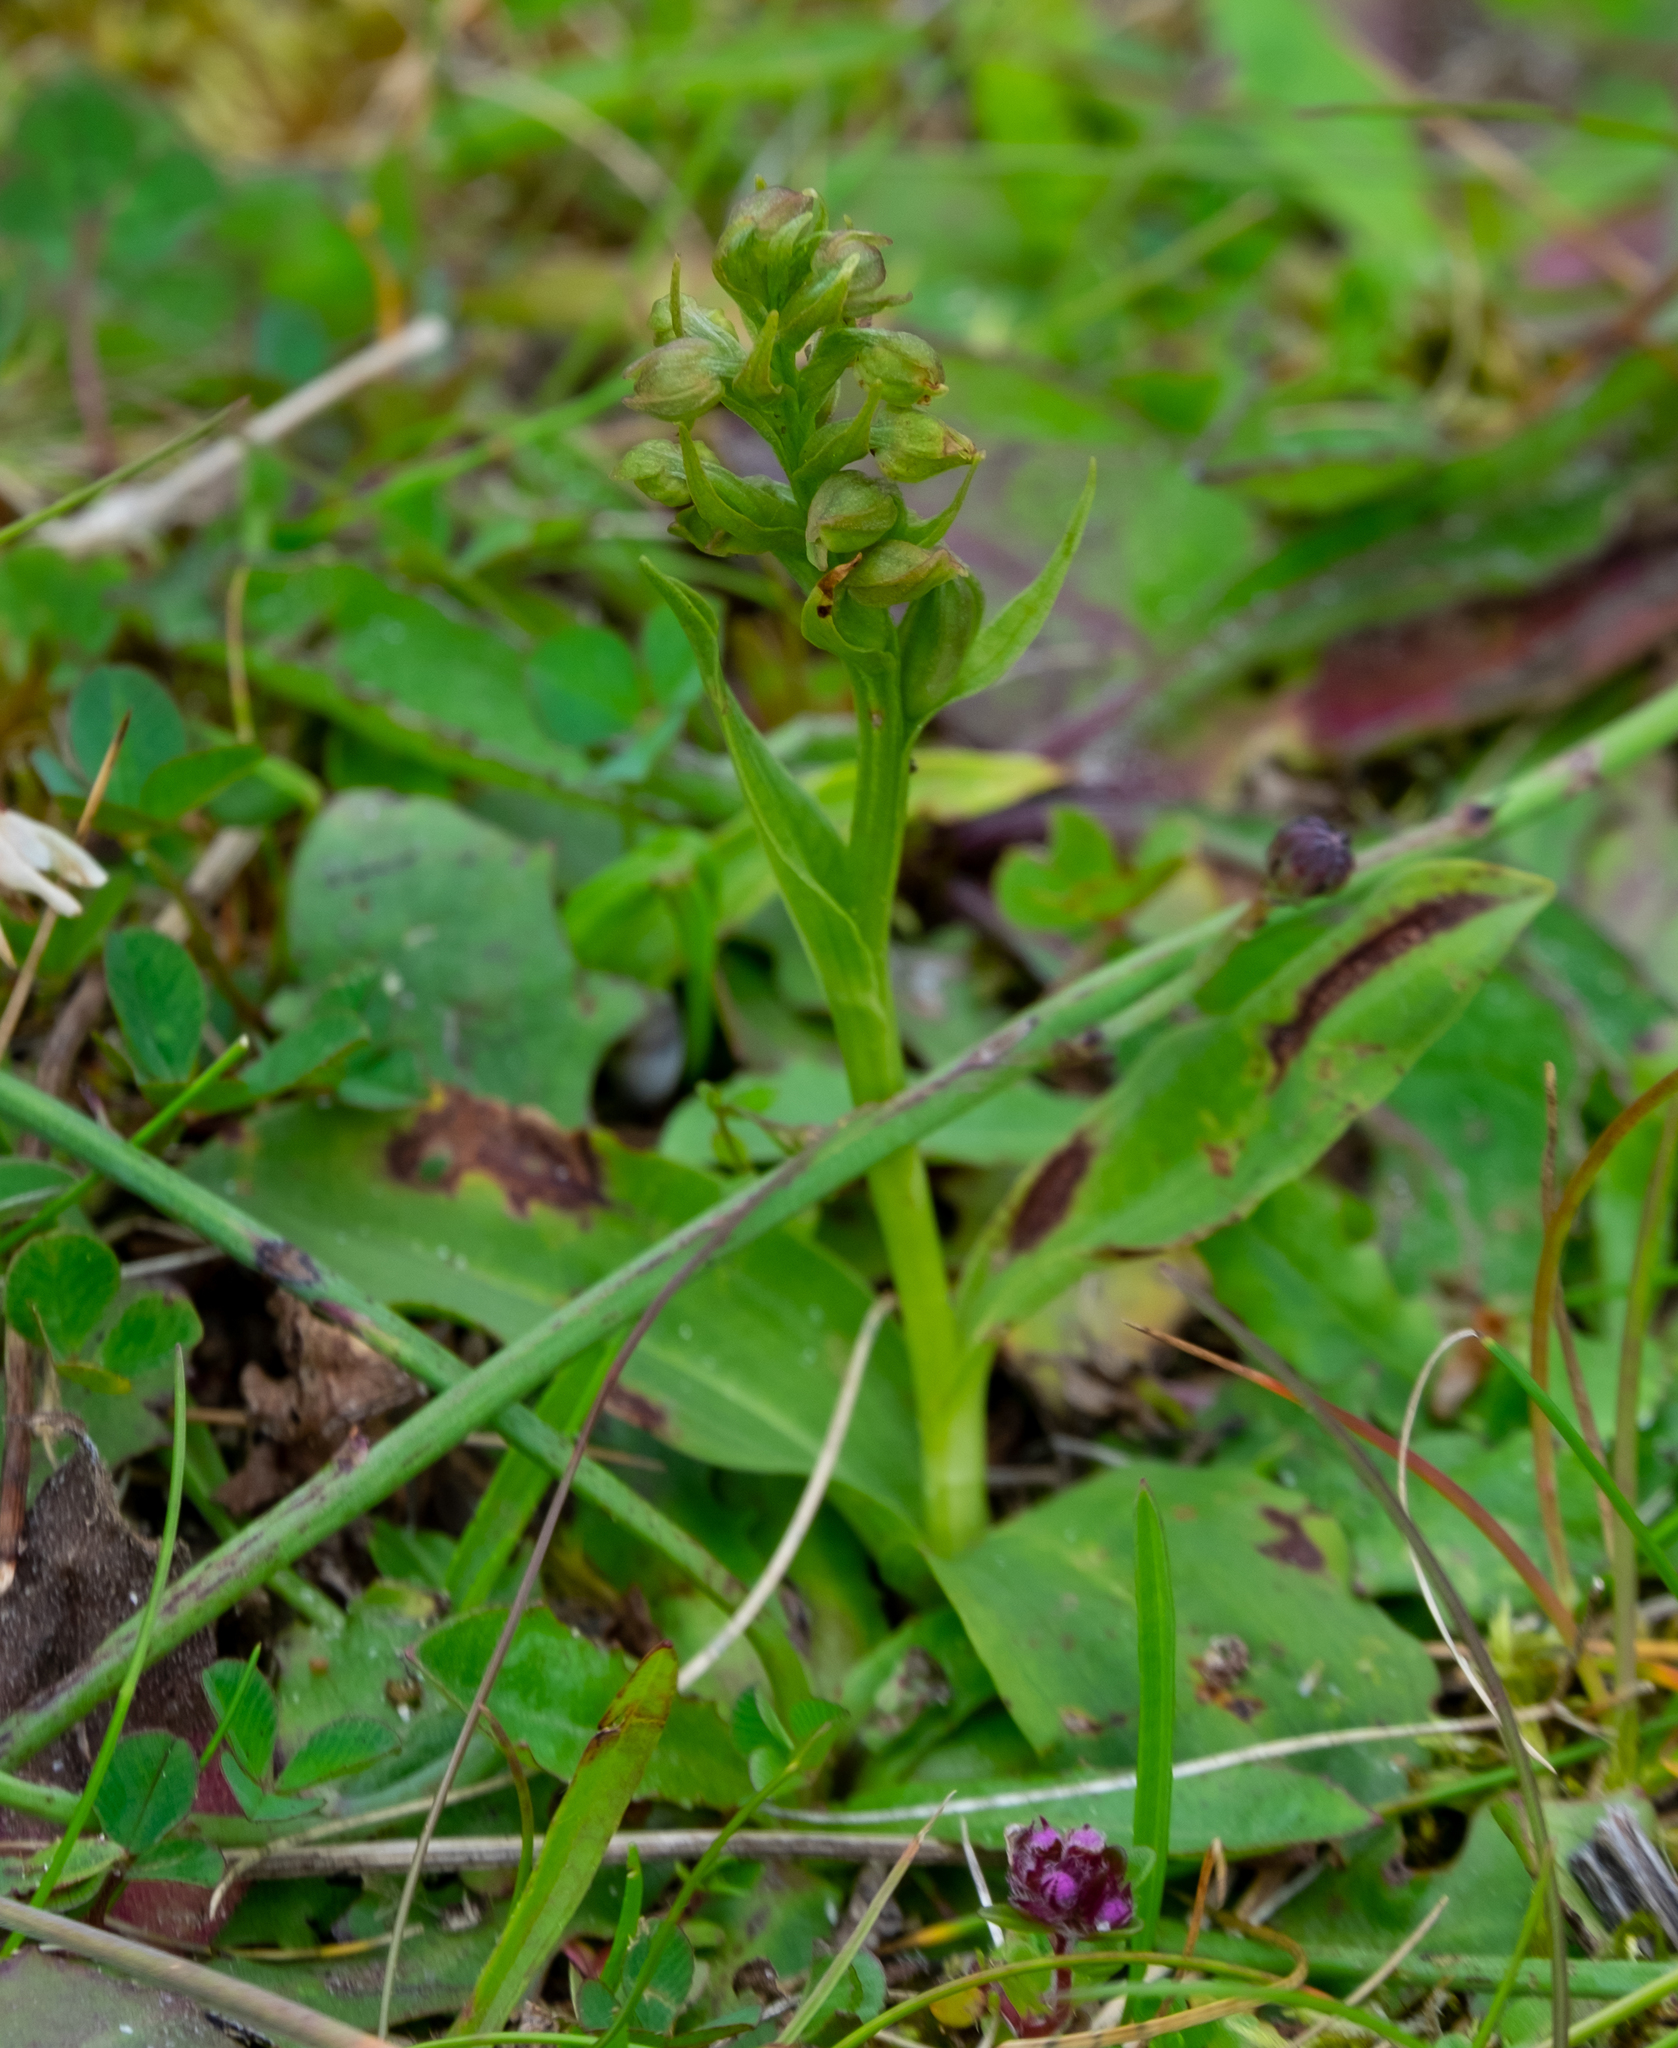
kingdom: Plantae
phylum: Tracheophyta
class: Liliopsida
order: Asparagales
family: Orchidaceae
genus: Dactylorhiza
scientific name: Dactylorhiza viridis
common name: Longbract frog orchid
